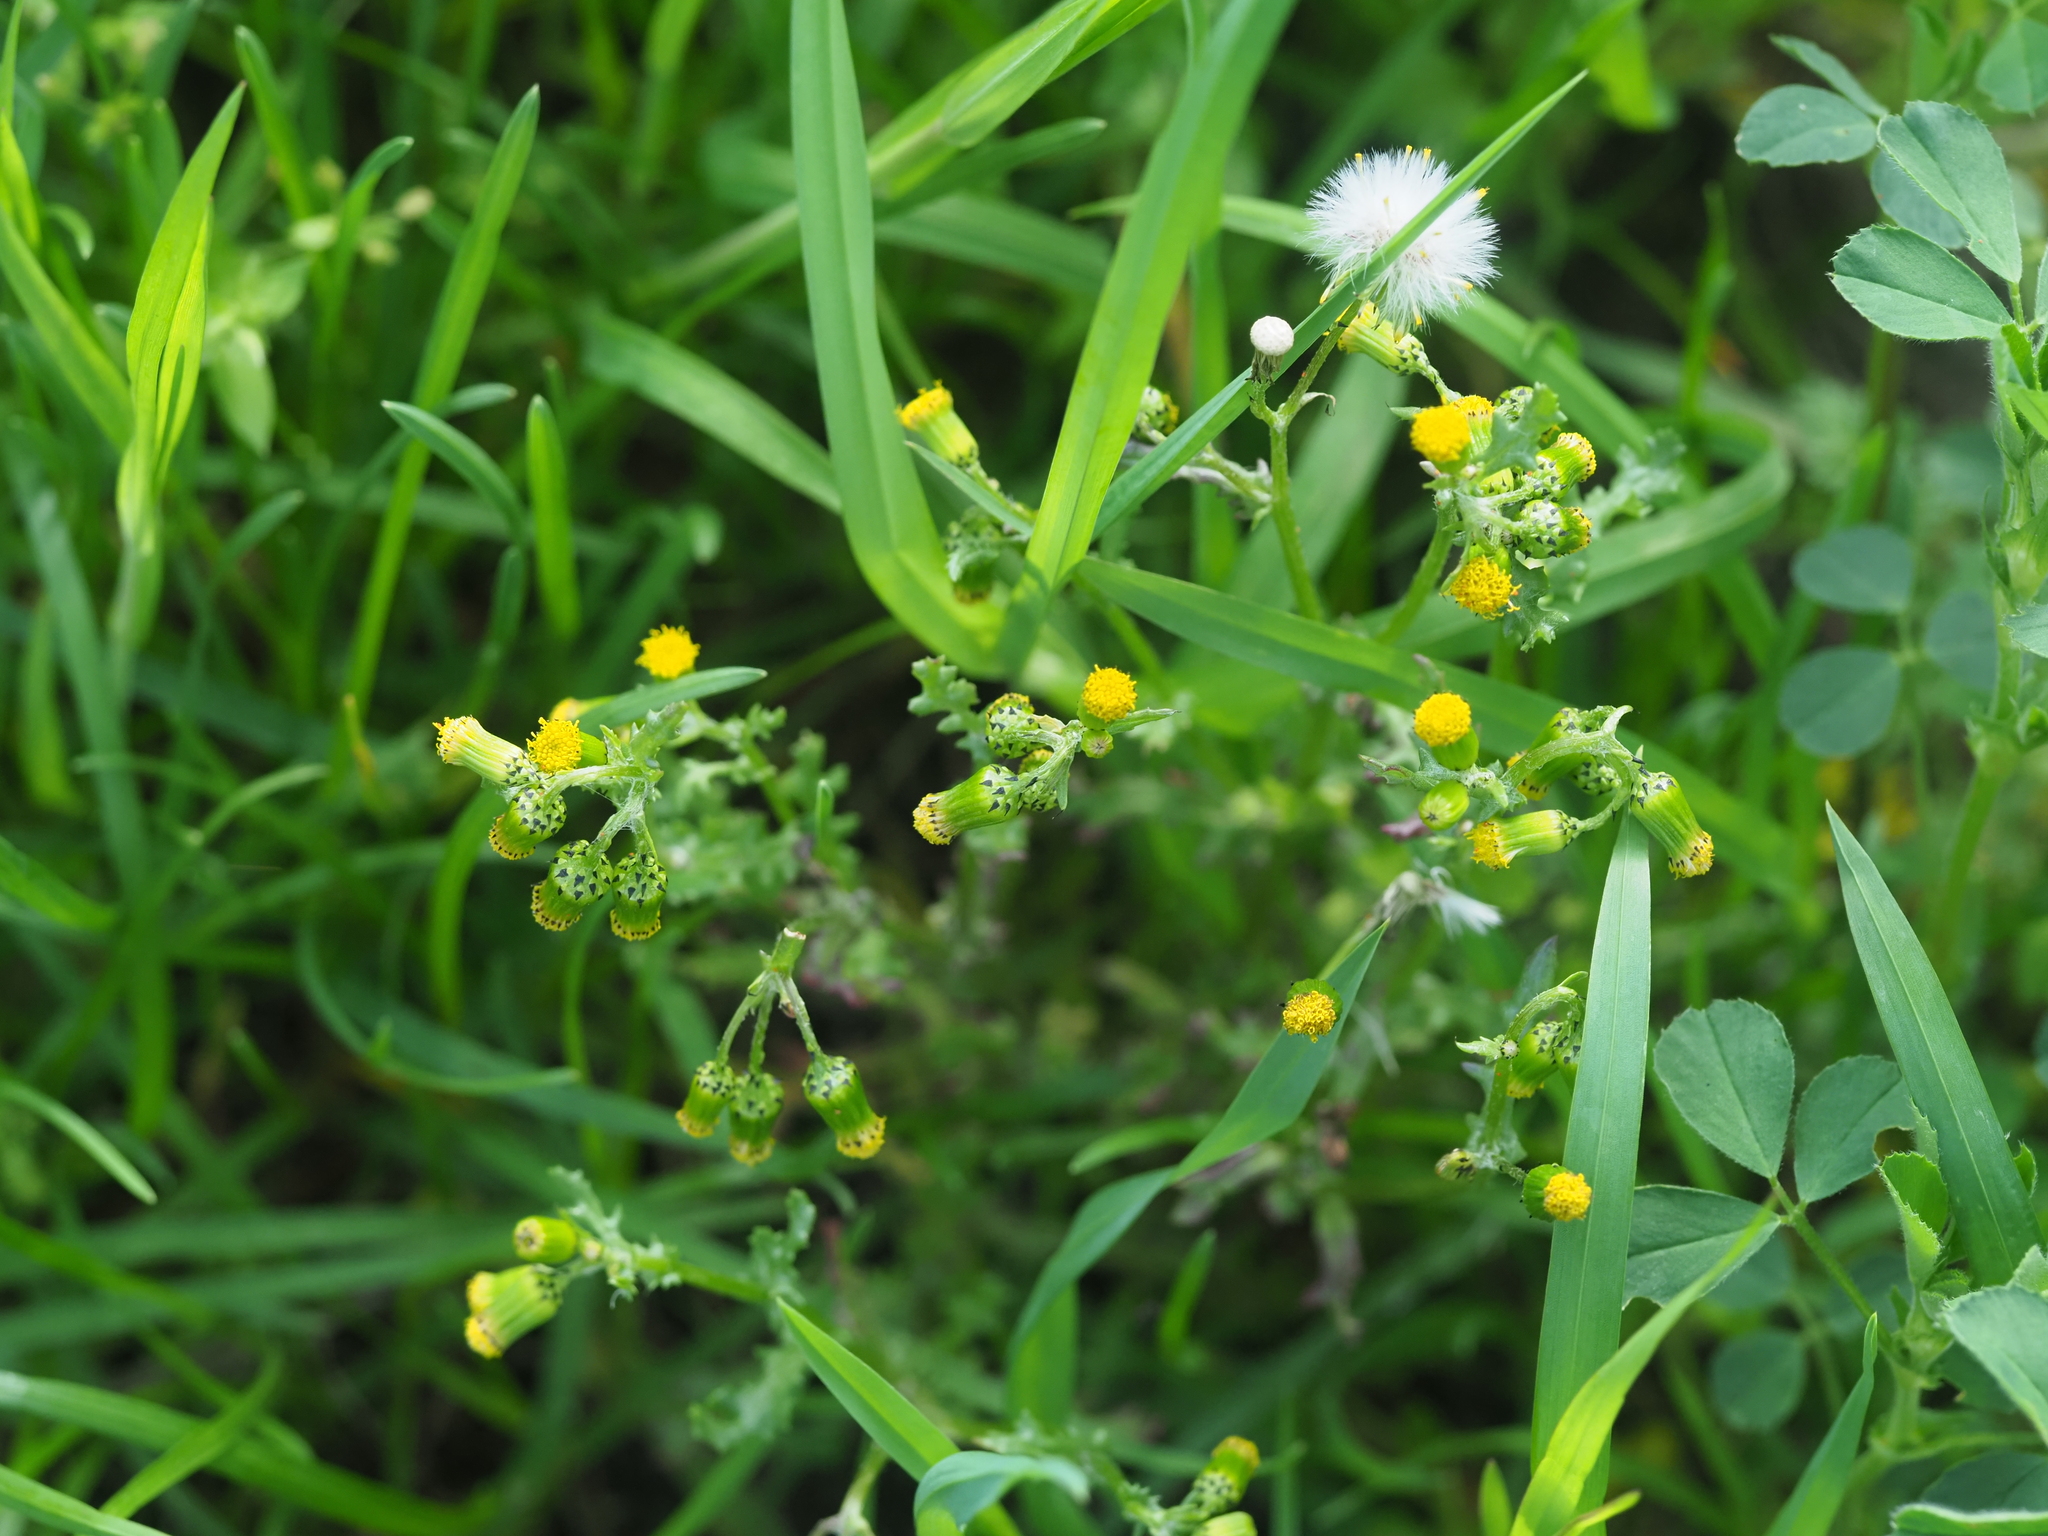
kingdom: Plantae
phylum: Tracheophyta
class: Magnoliopsida
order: Asterales
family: Asteraceae
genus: Senecio
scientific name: Senecio vulgaris
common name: Old-man-in-the-spring
